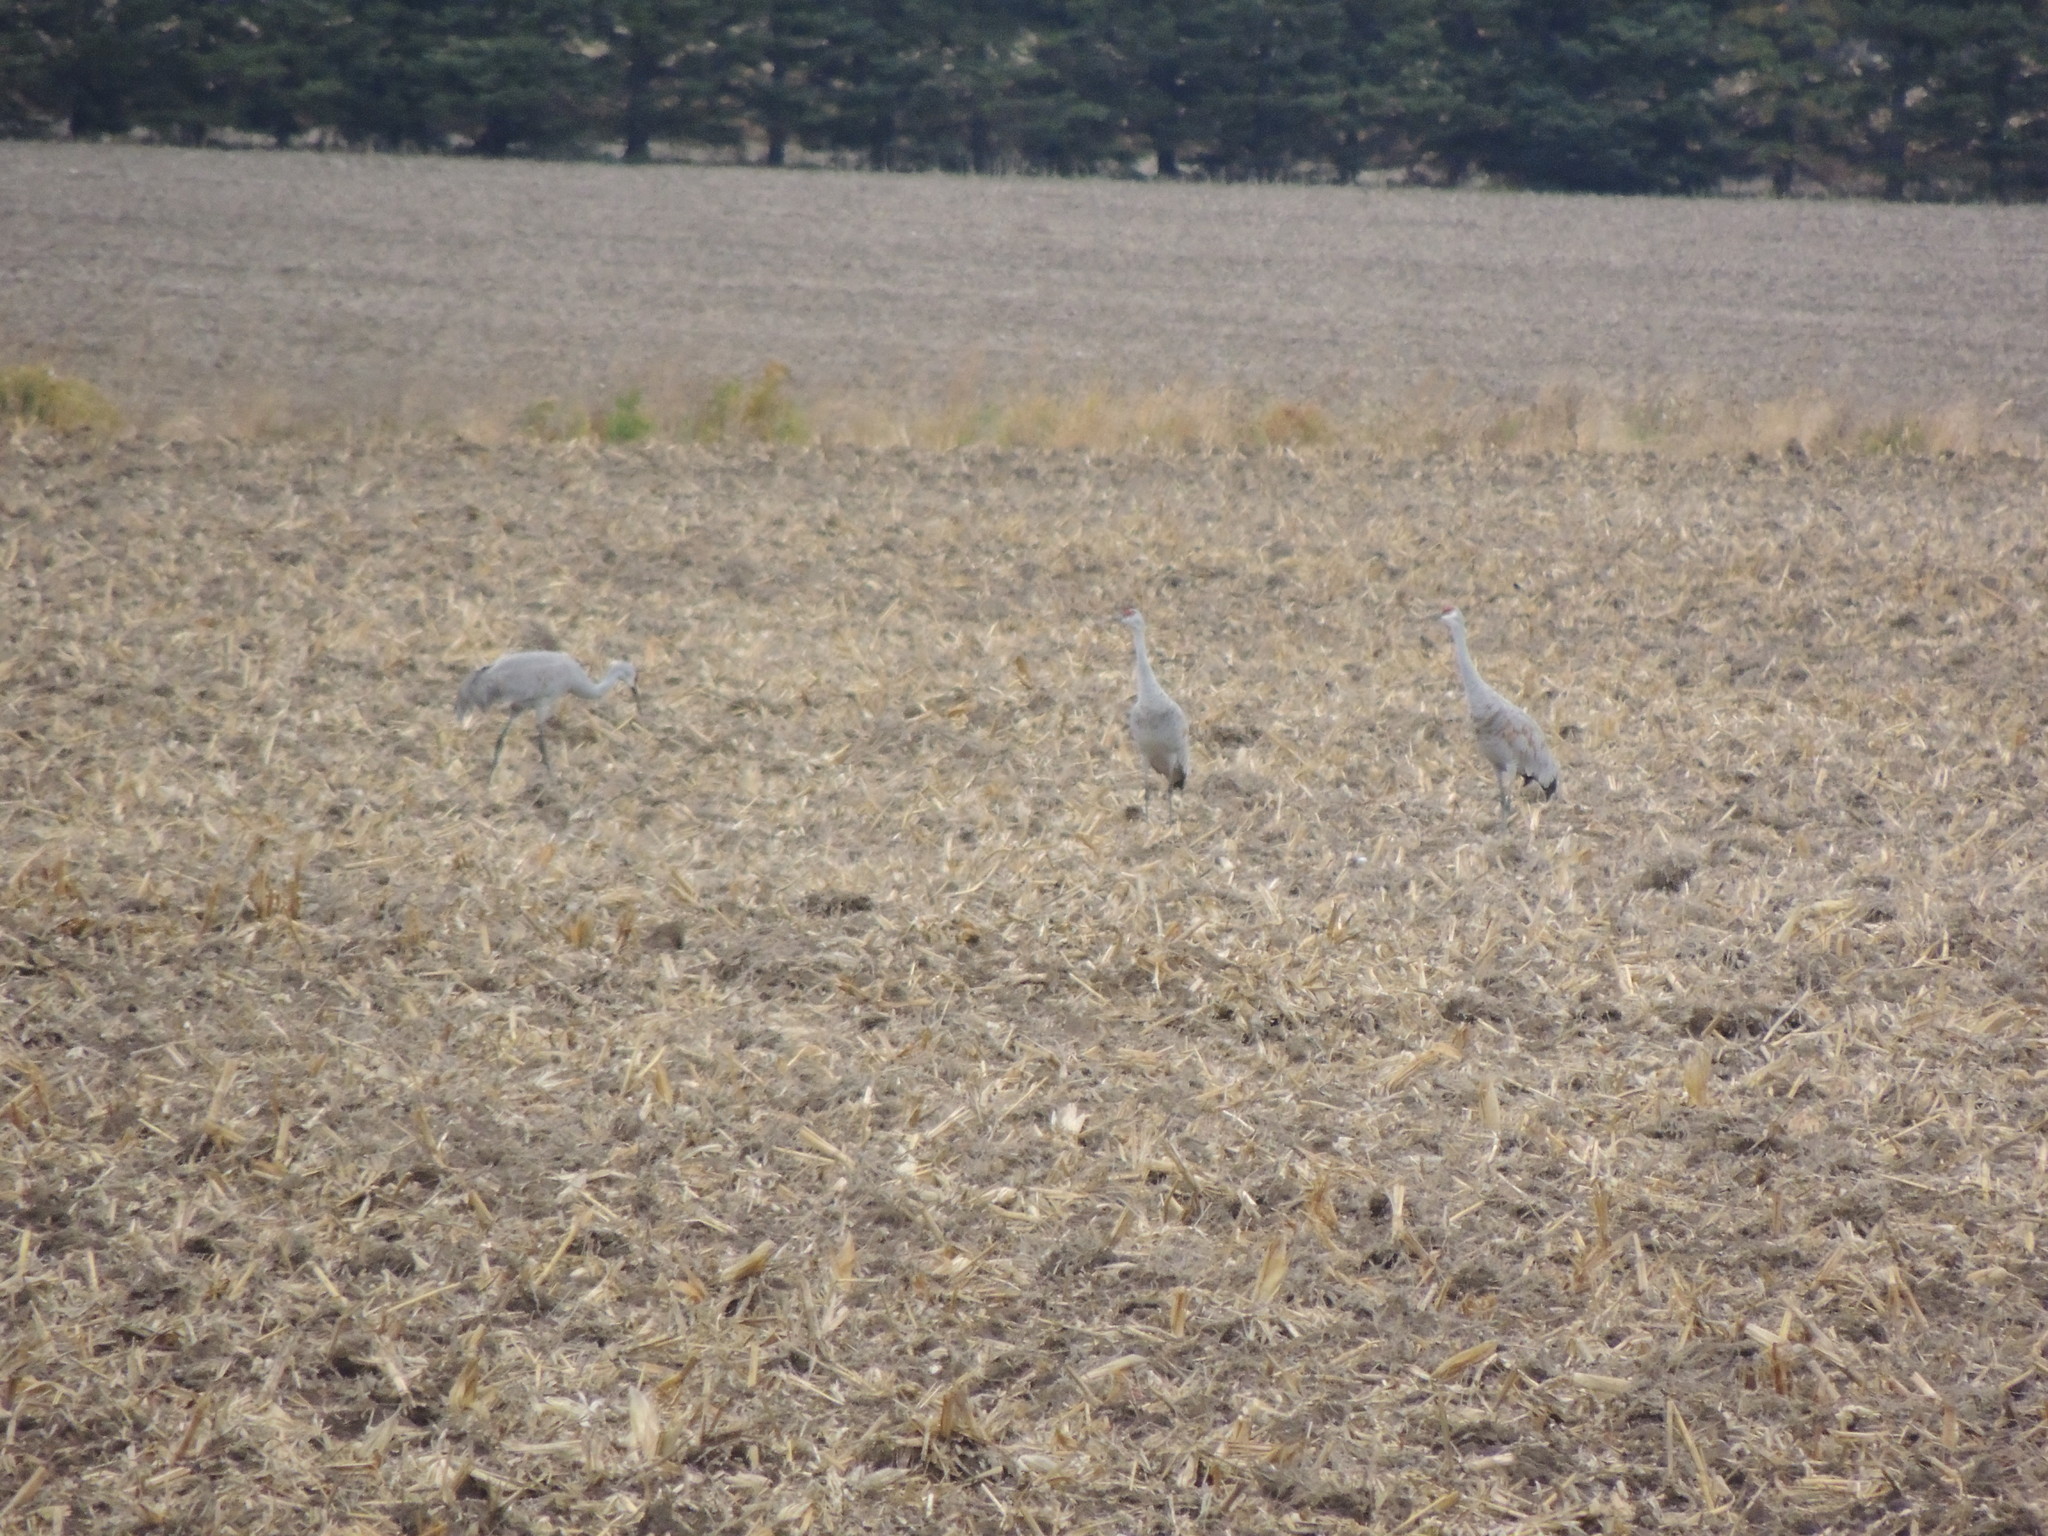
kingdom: Animalia
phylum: Chordata
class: Aves
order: Gruiformes
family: Gruidae
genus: Grus
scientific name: Grus canadensis
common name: Sandhill crane
